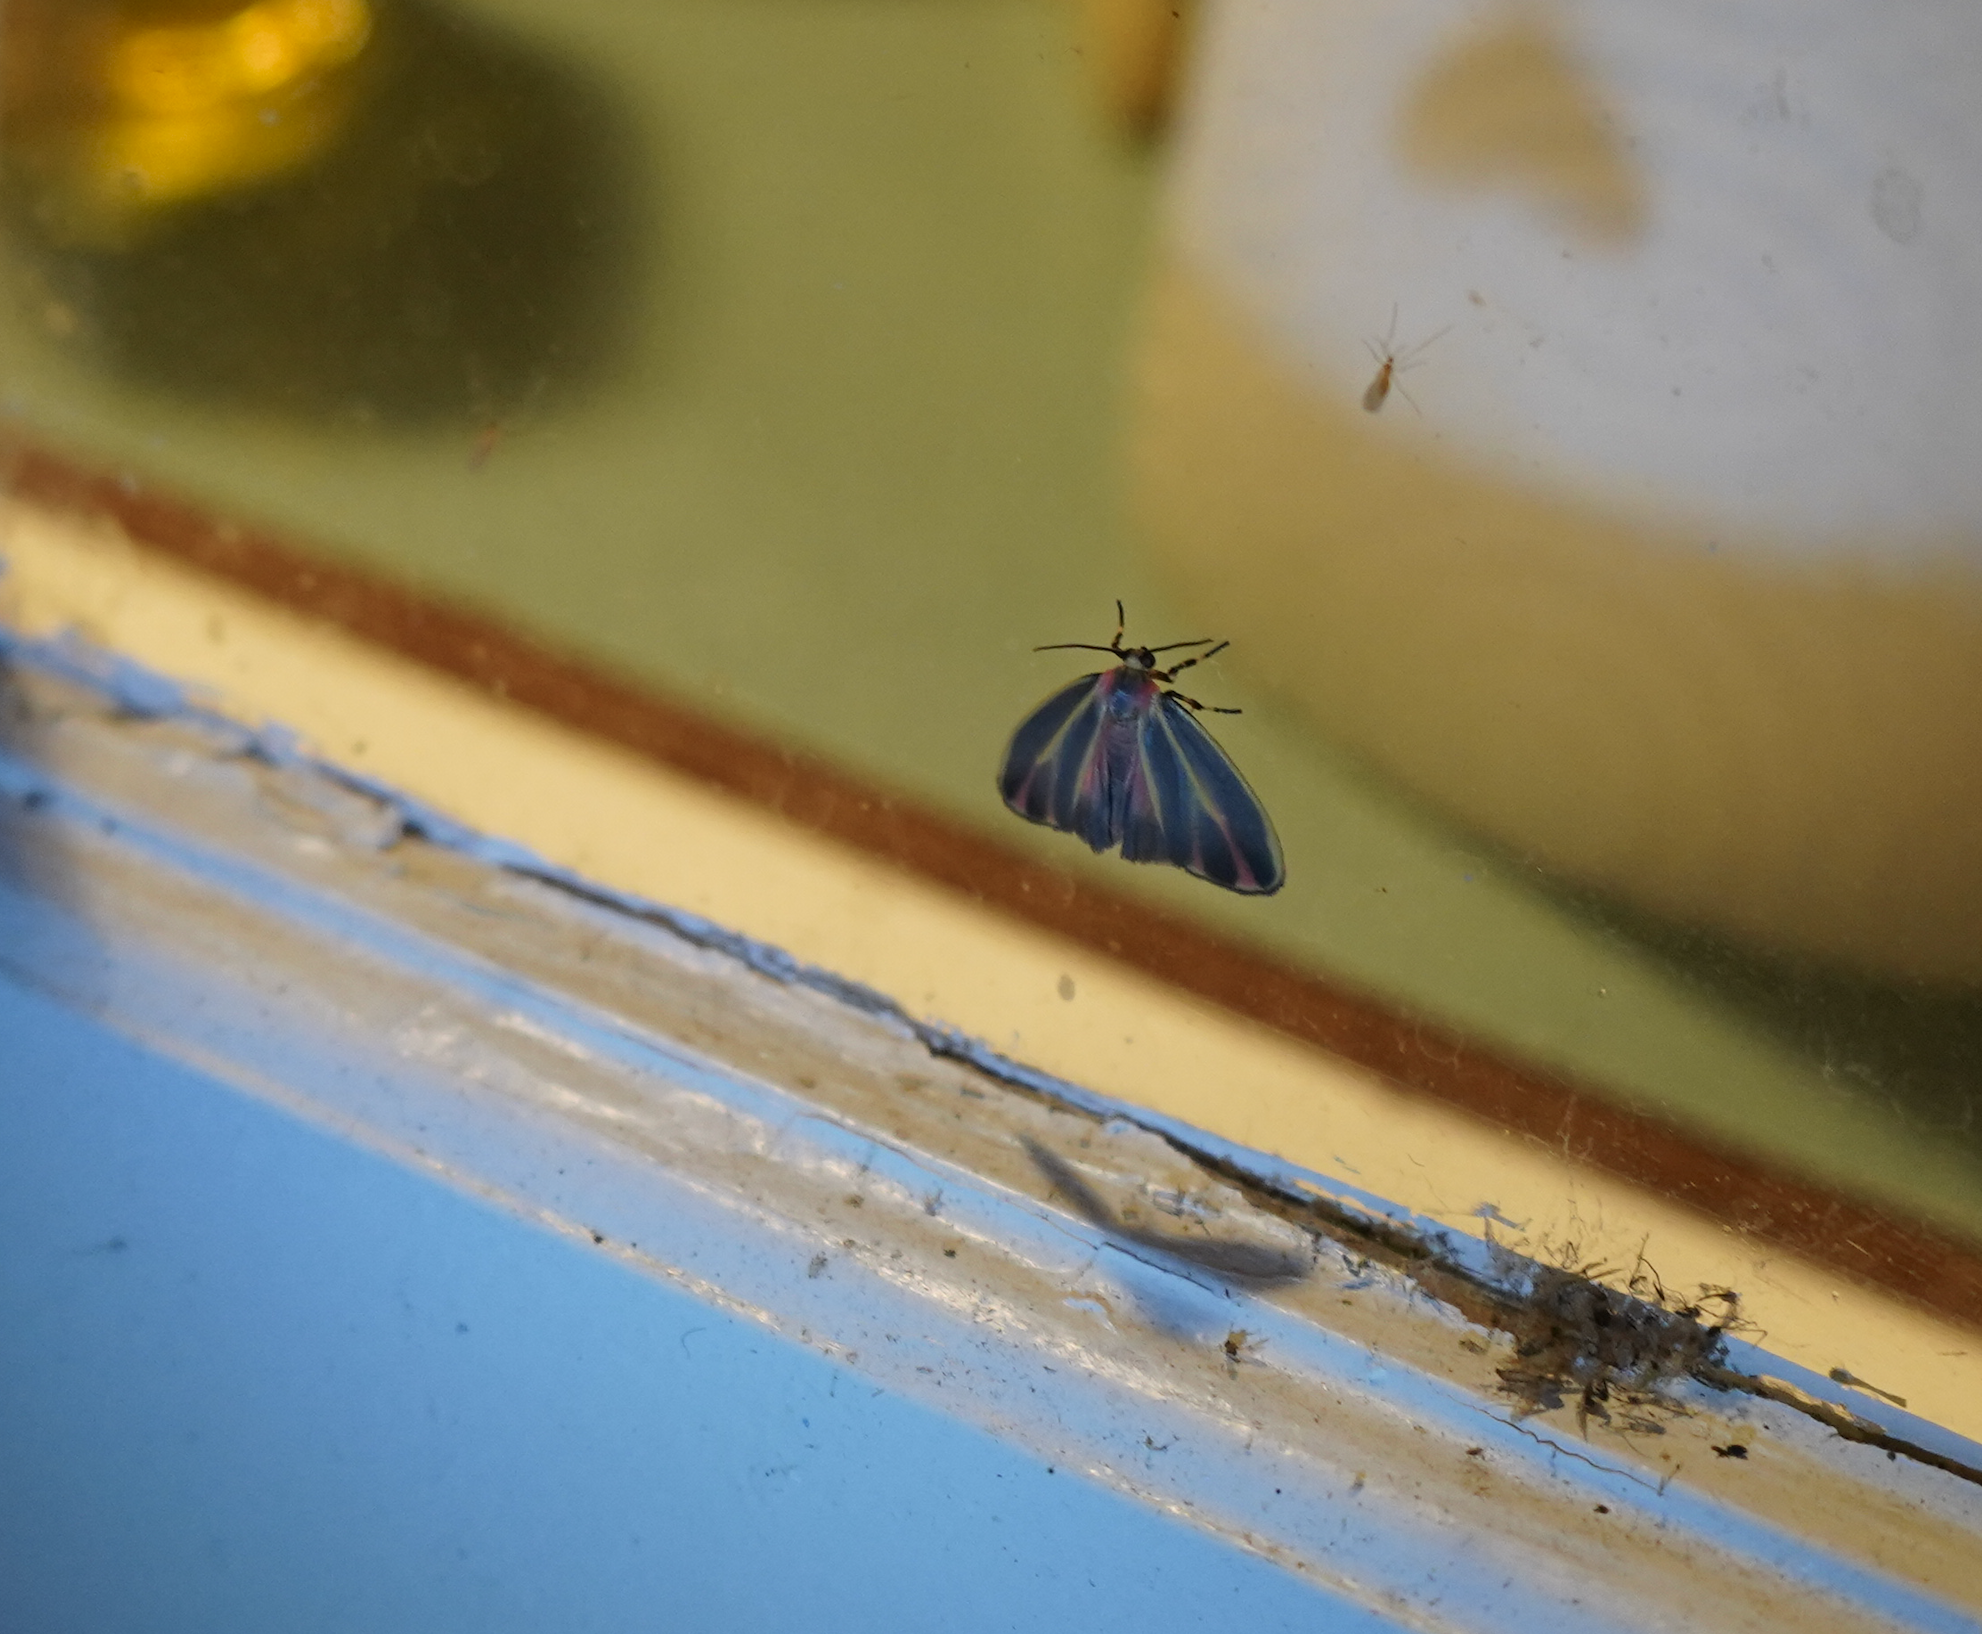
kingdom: Animalia
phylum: Arthropoda
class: Insecta
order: Lepidoptera
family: Erebidae
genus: Hypoprepia
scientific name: Hypoprepia fucosa
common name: Painted lichen moth
